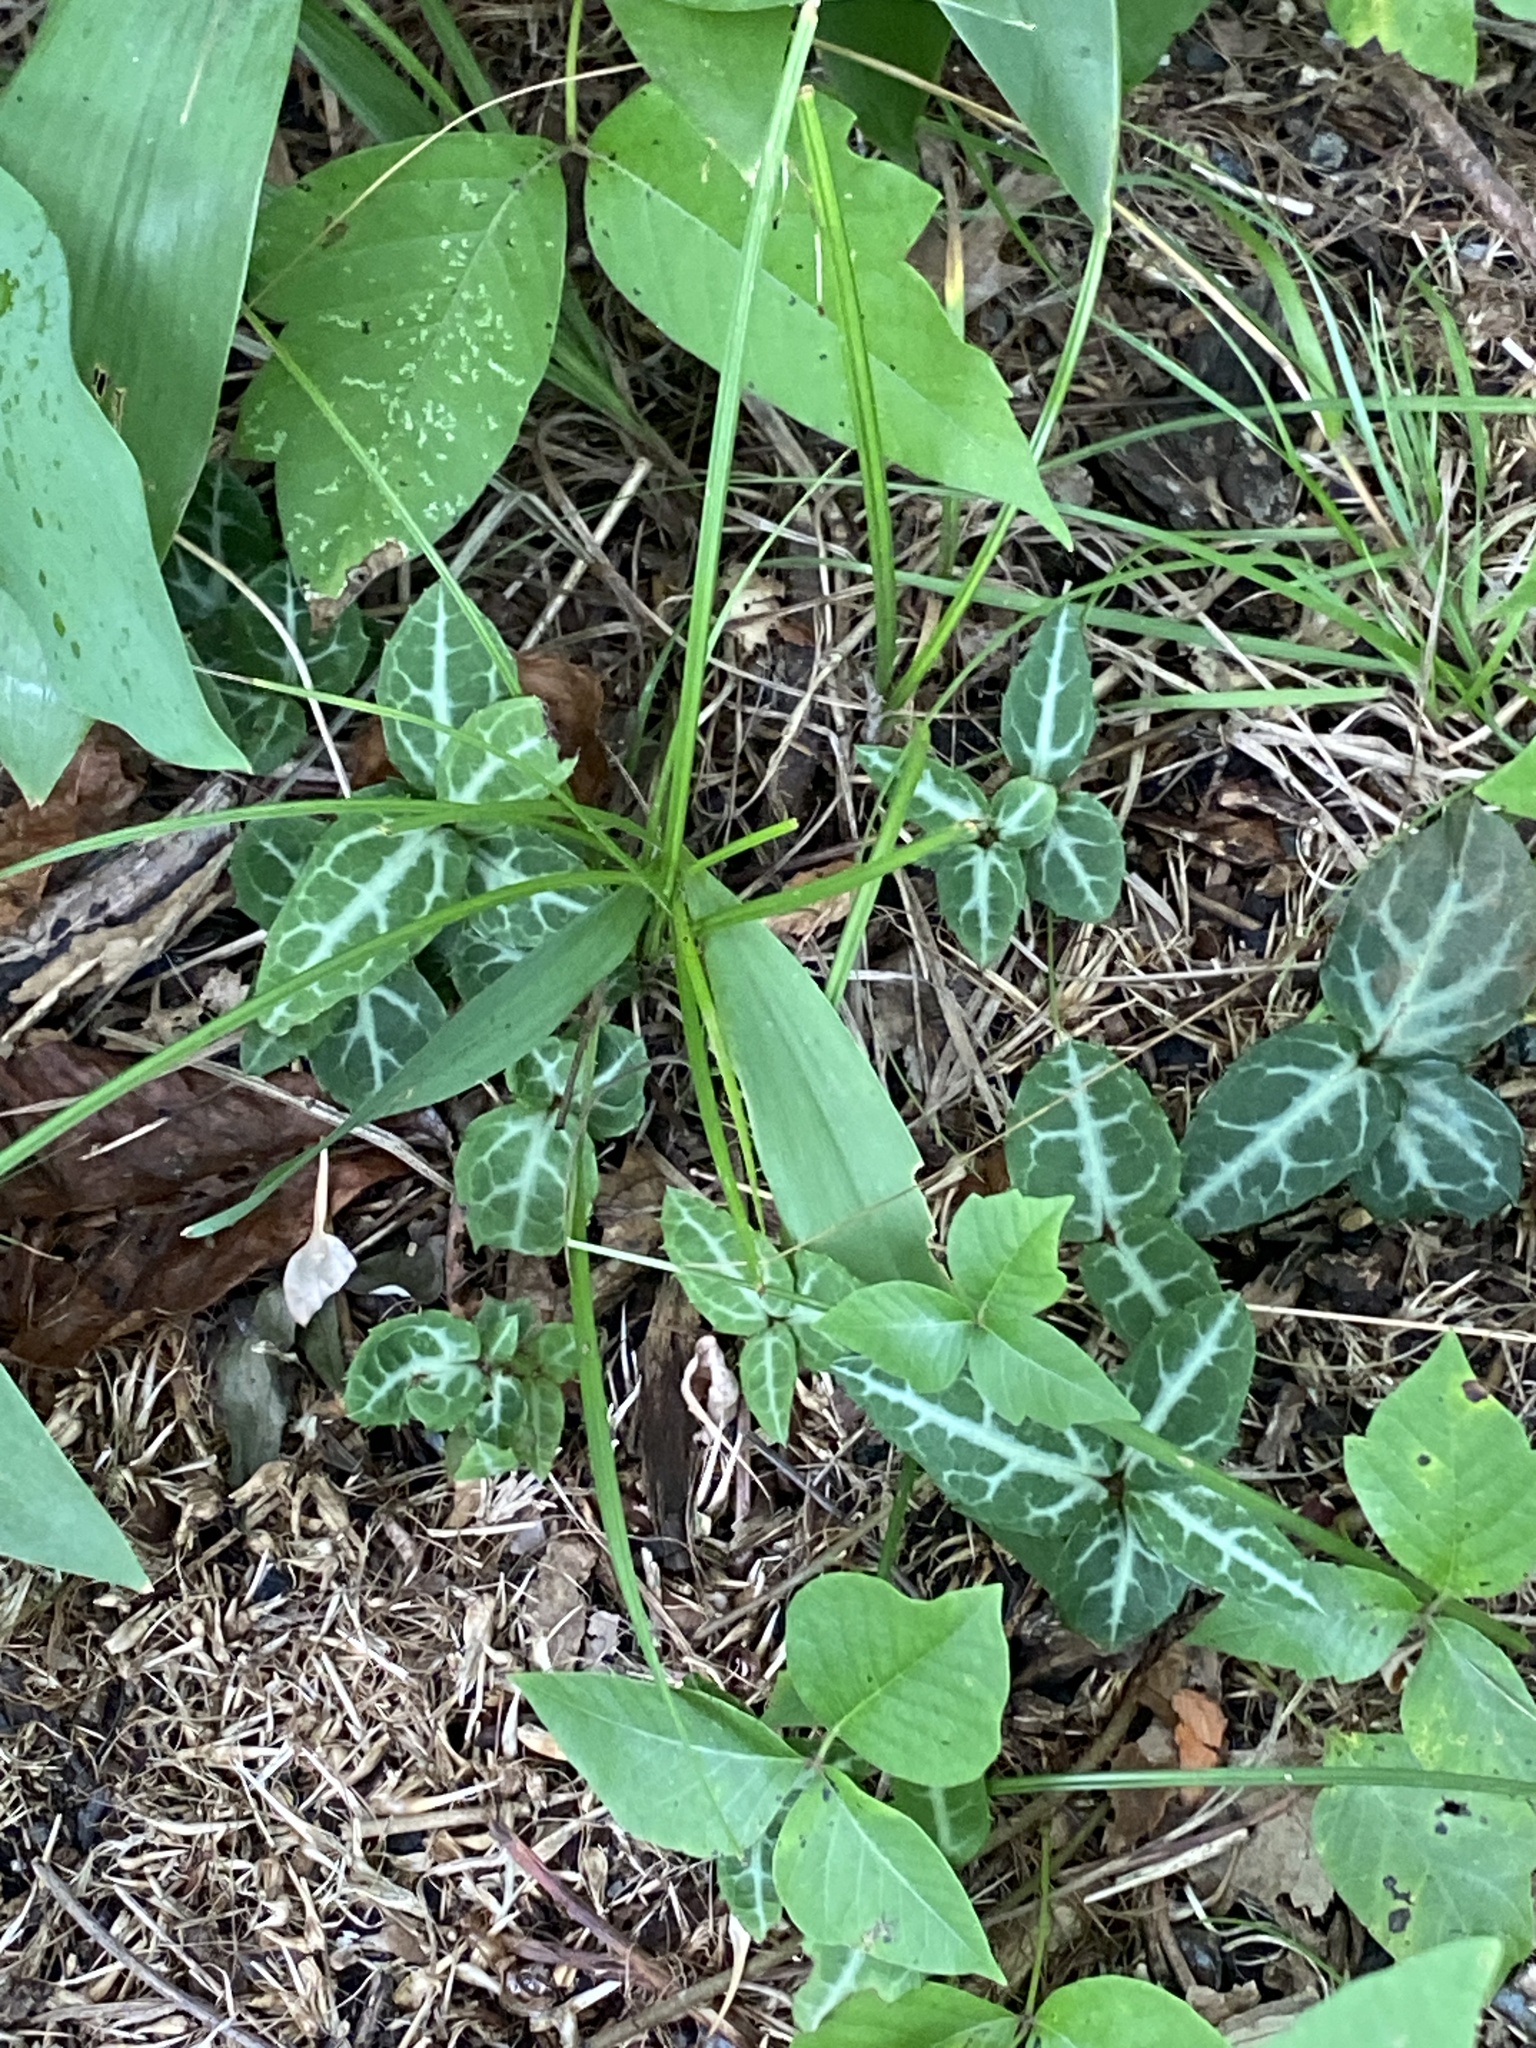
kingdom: Plantae
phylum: Tracheophyta
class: Magnoliopsida
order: Ericales
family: Ericaceae
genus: Chimaphila
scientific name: Chimaphila maculata
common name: Spotted pipsissewa
